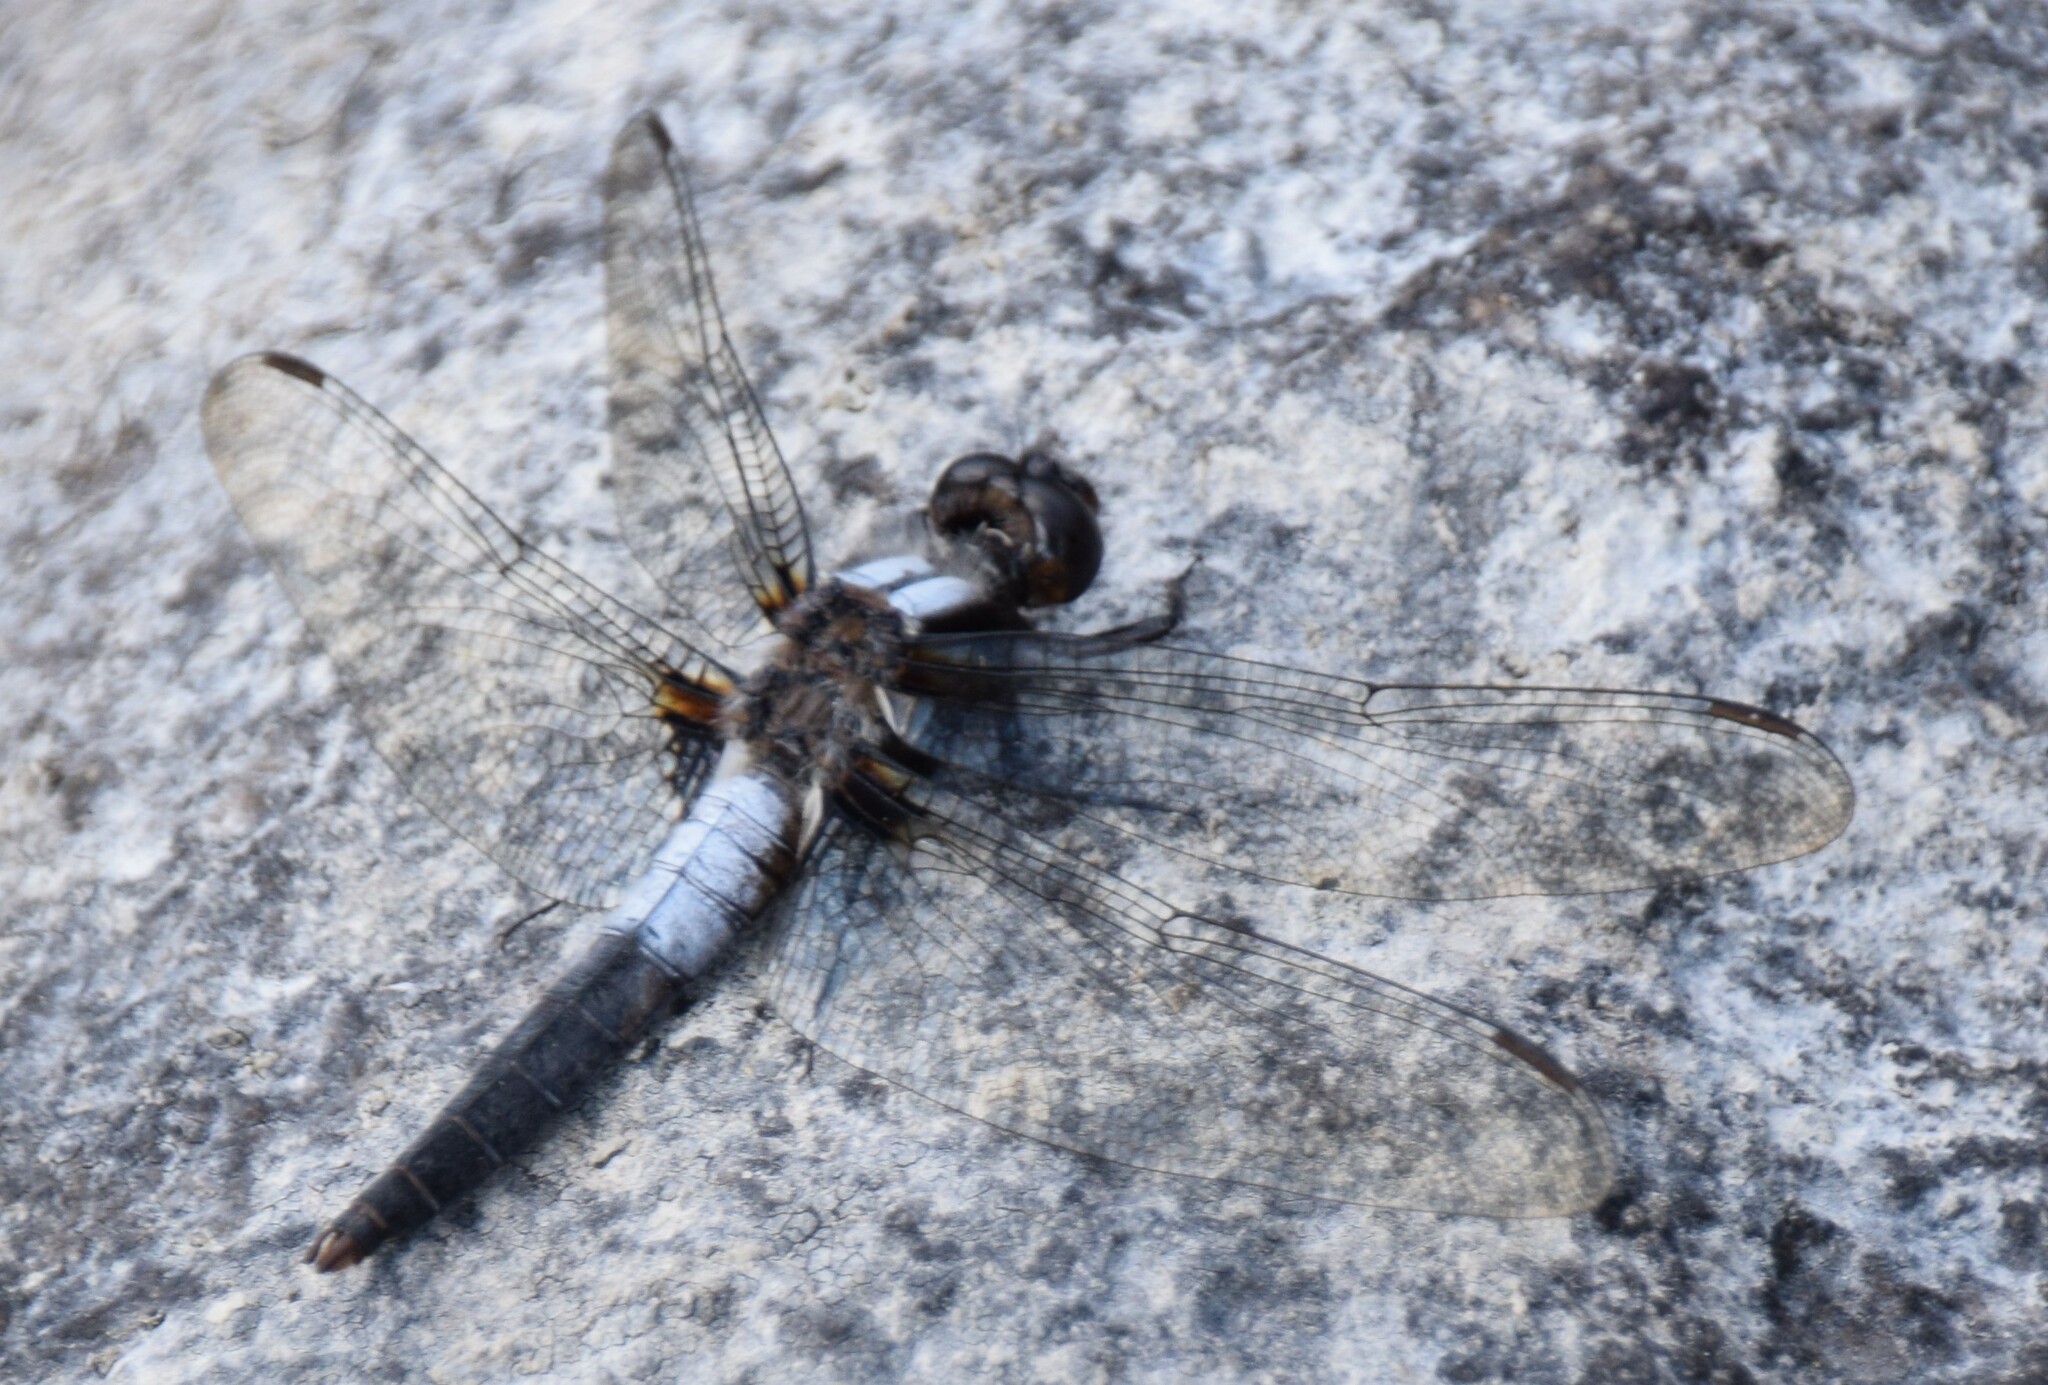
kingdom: Animalia
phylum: Arthropoda
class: Insecta
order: Odonata
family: Libellulidae
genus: Ladona
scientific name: Ladona julia
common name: Chalk-fronted corporal
